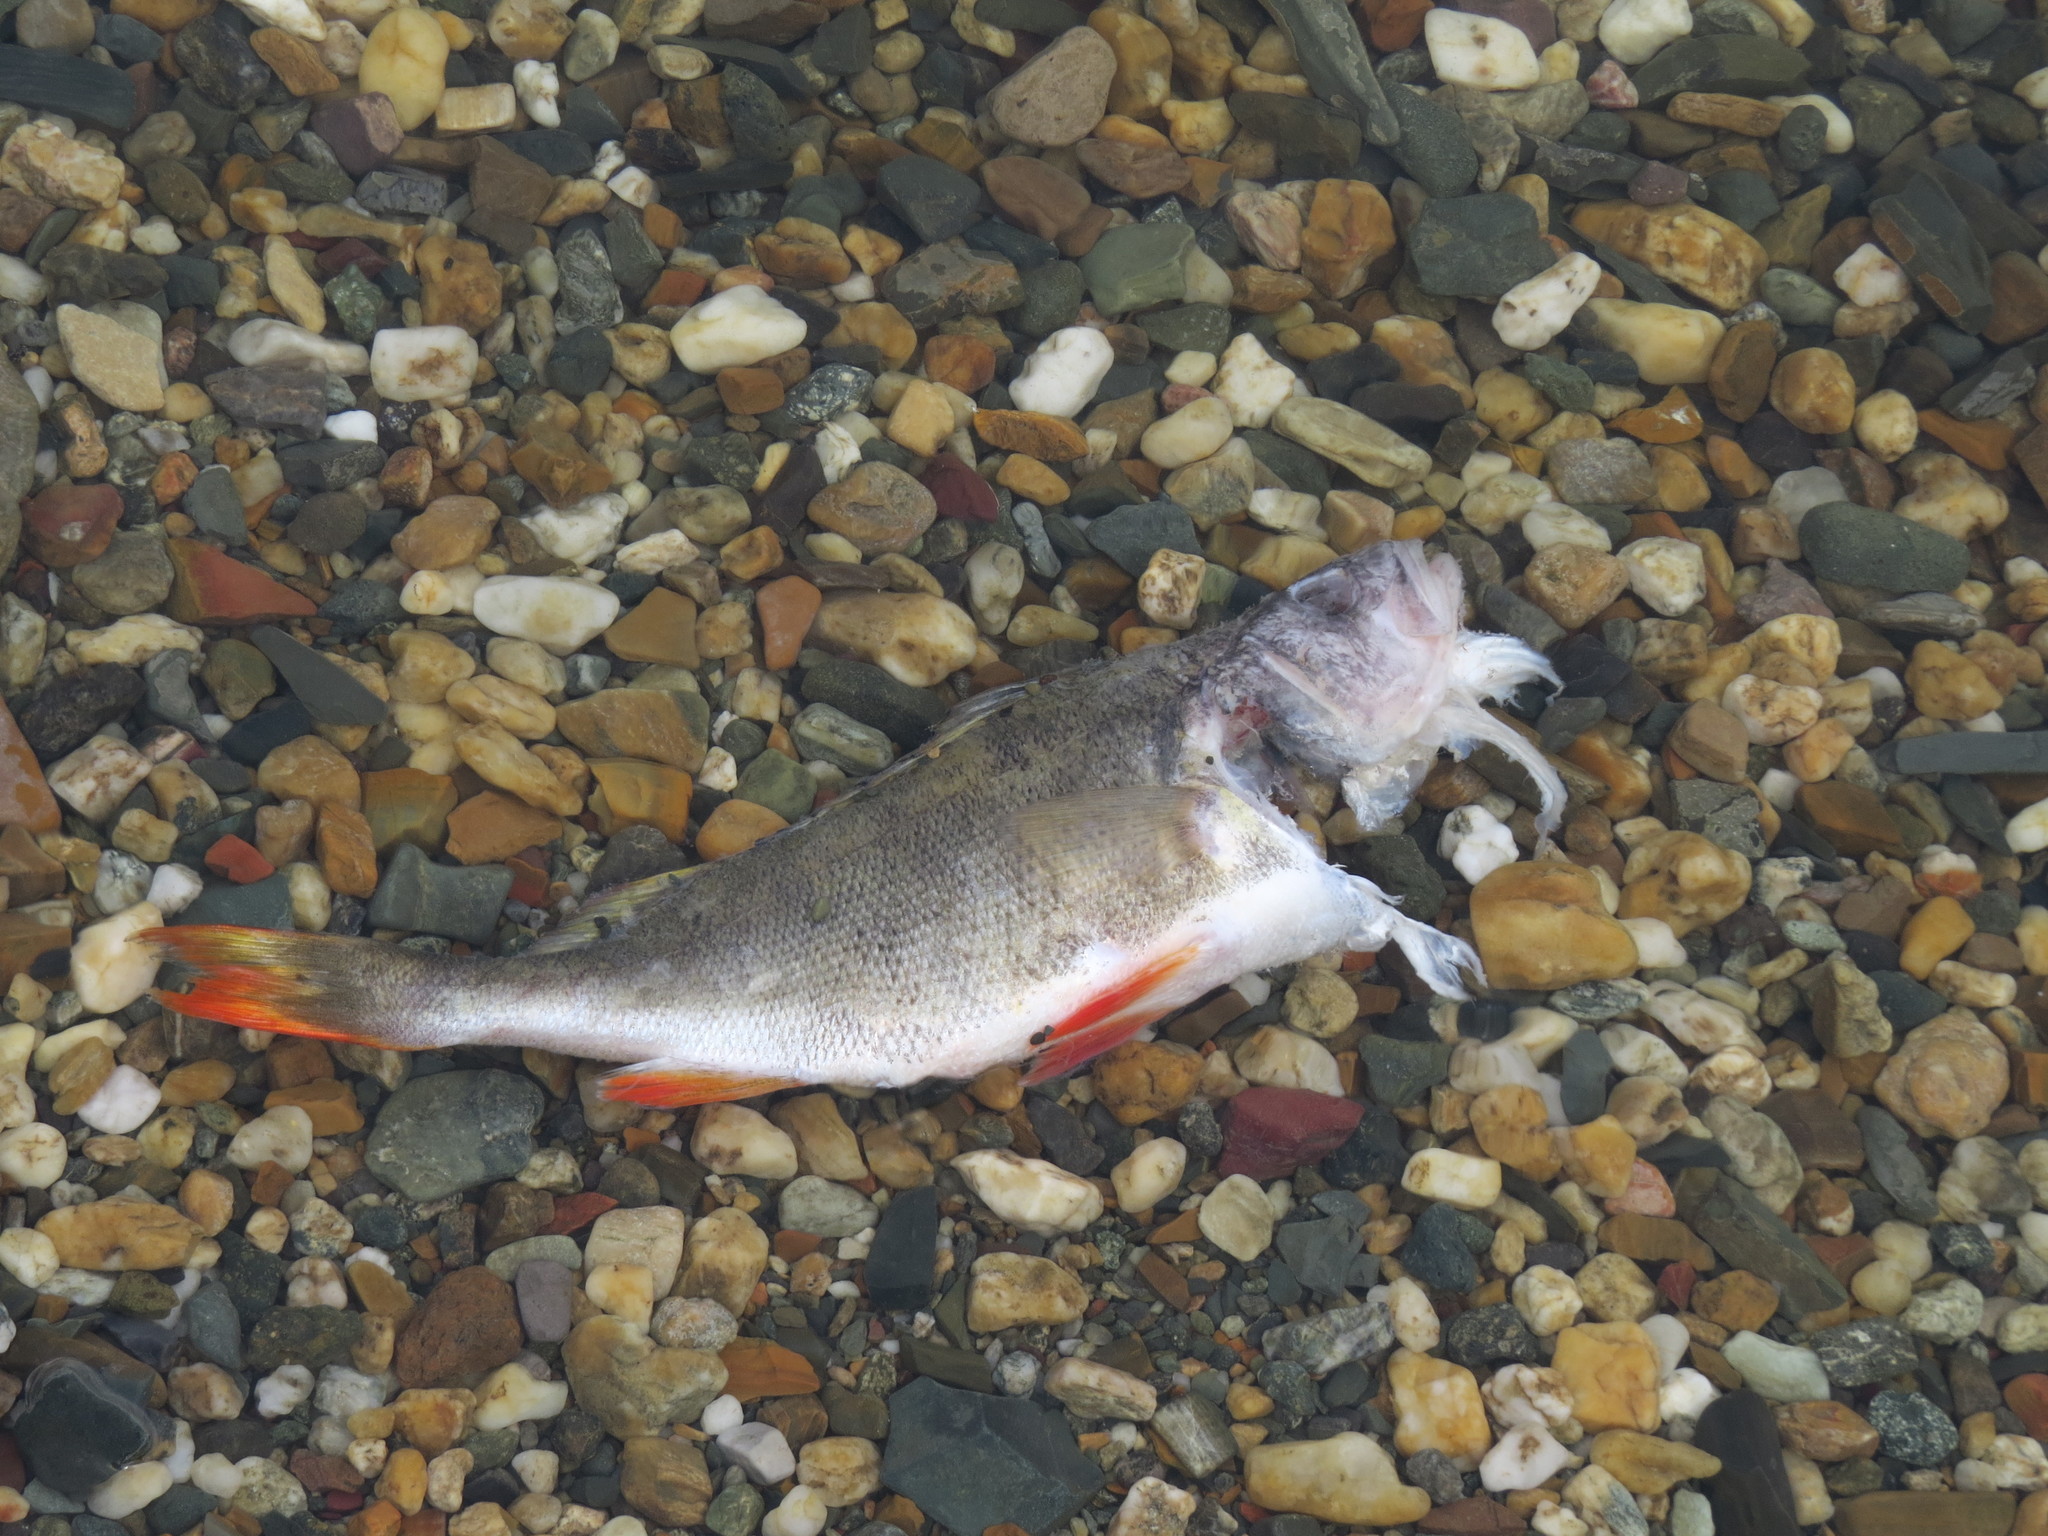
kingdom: Animalia
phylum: Chordata
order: Perciformes
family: Percidae
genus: Perca
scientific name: Perca fluviatilis
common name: Perch
